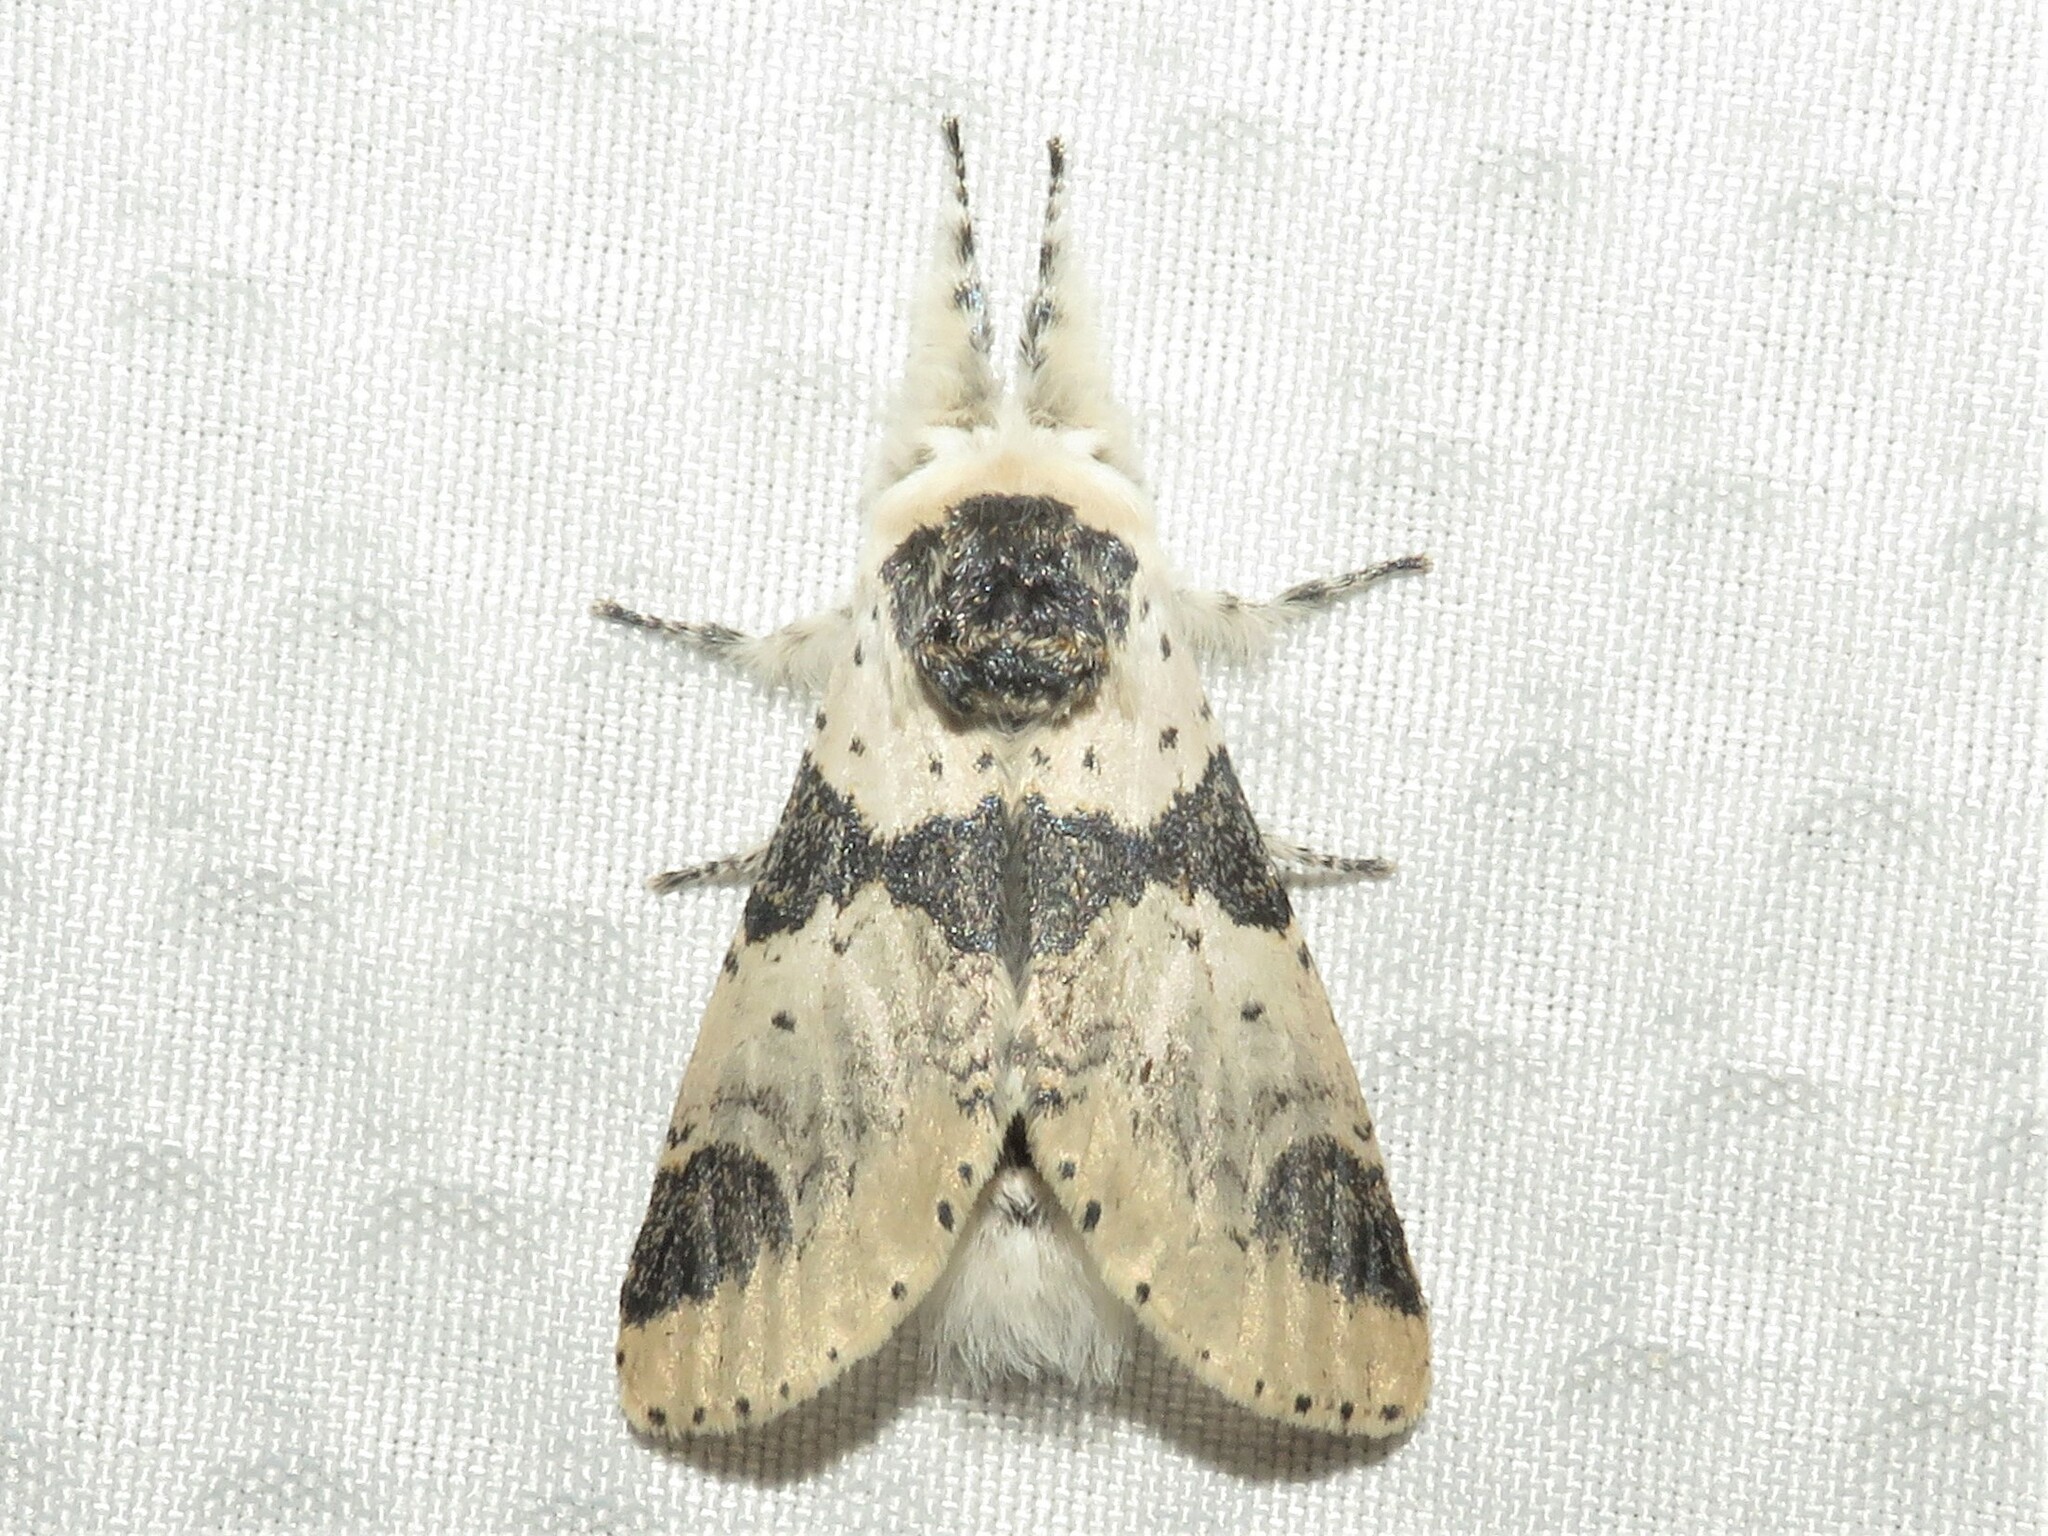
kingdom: Animalia
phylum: Arthropoda
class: Insecta
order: Lepidoptera
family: Notodontidae
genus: Furcula
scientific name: Furcula modesta
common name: Modest furcula moth
